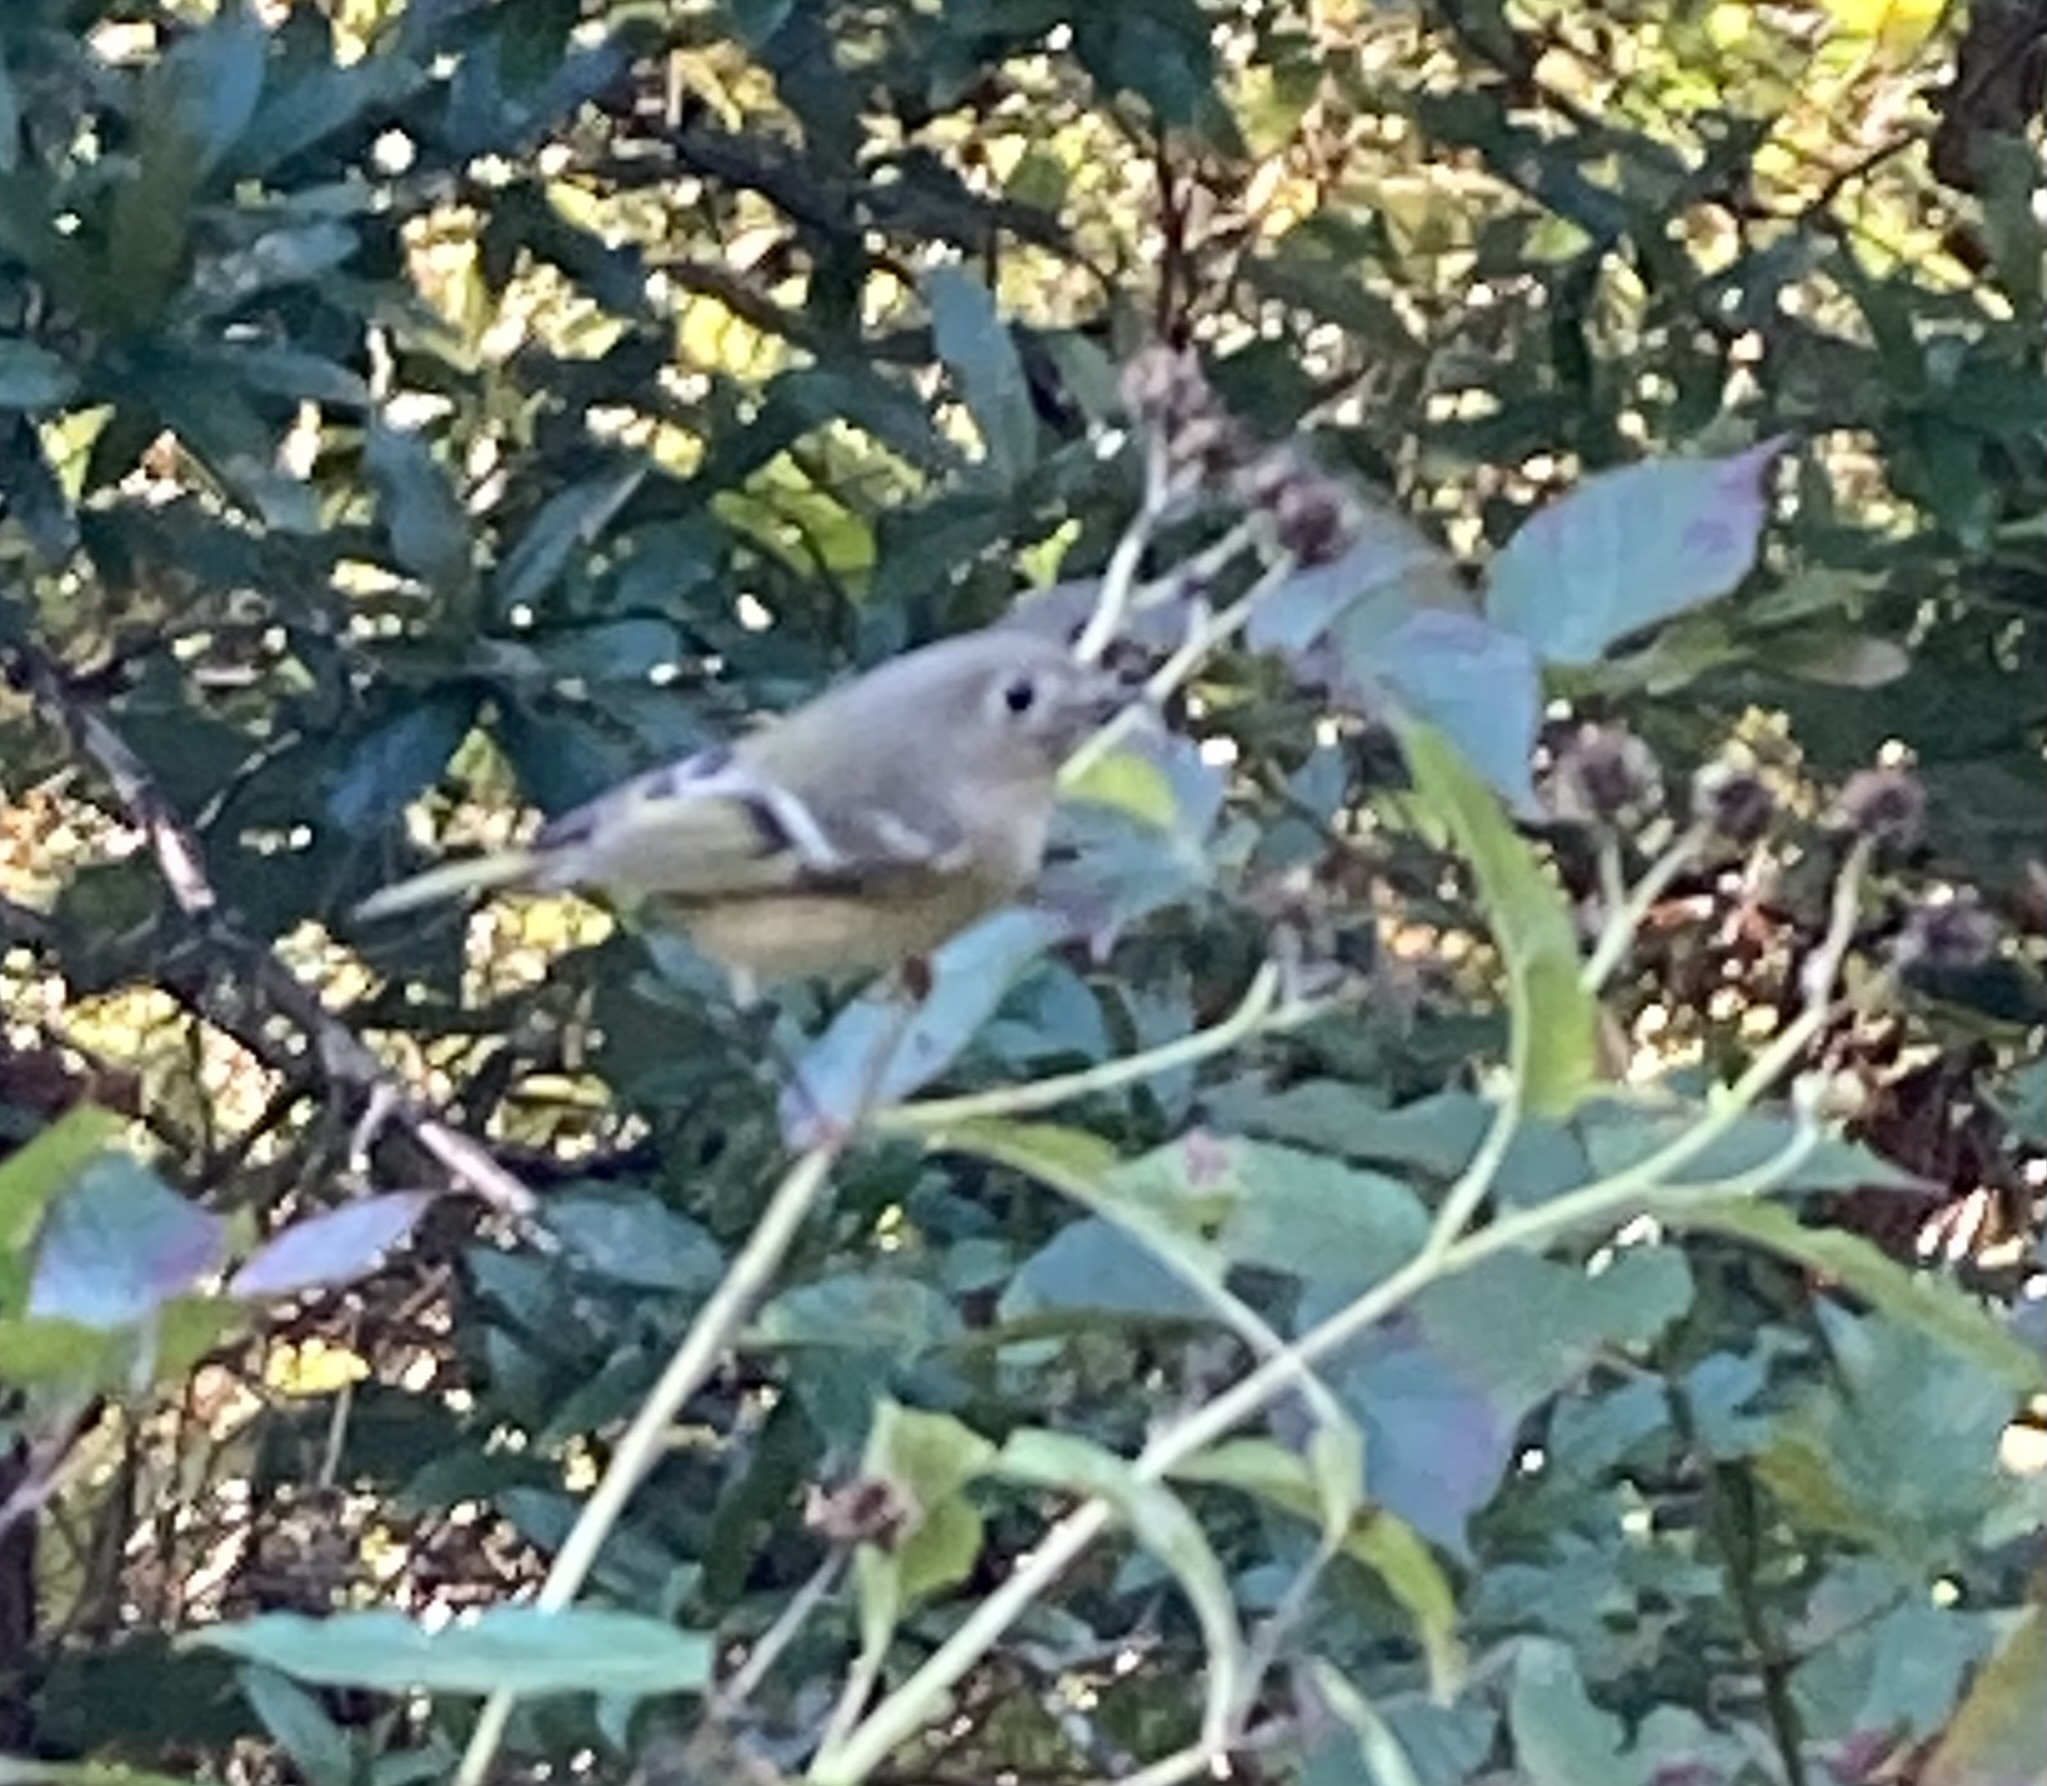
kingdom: Animalia
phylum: Chordata
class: Aves
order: Passeriformes
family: Regulidae
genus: Regulus
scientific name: Regulus calendula
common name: Ruby-crowned kinglet
